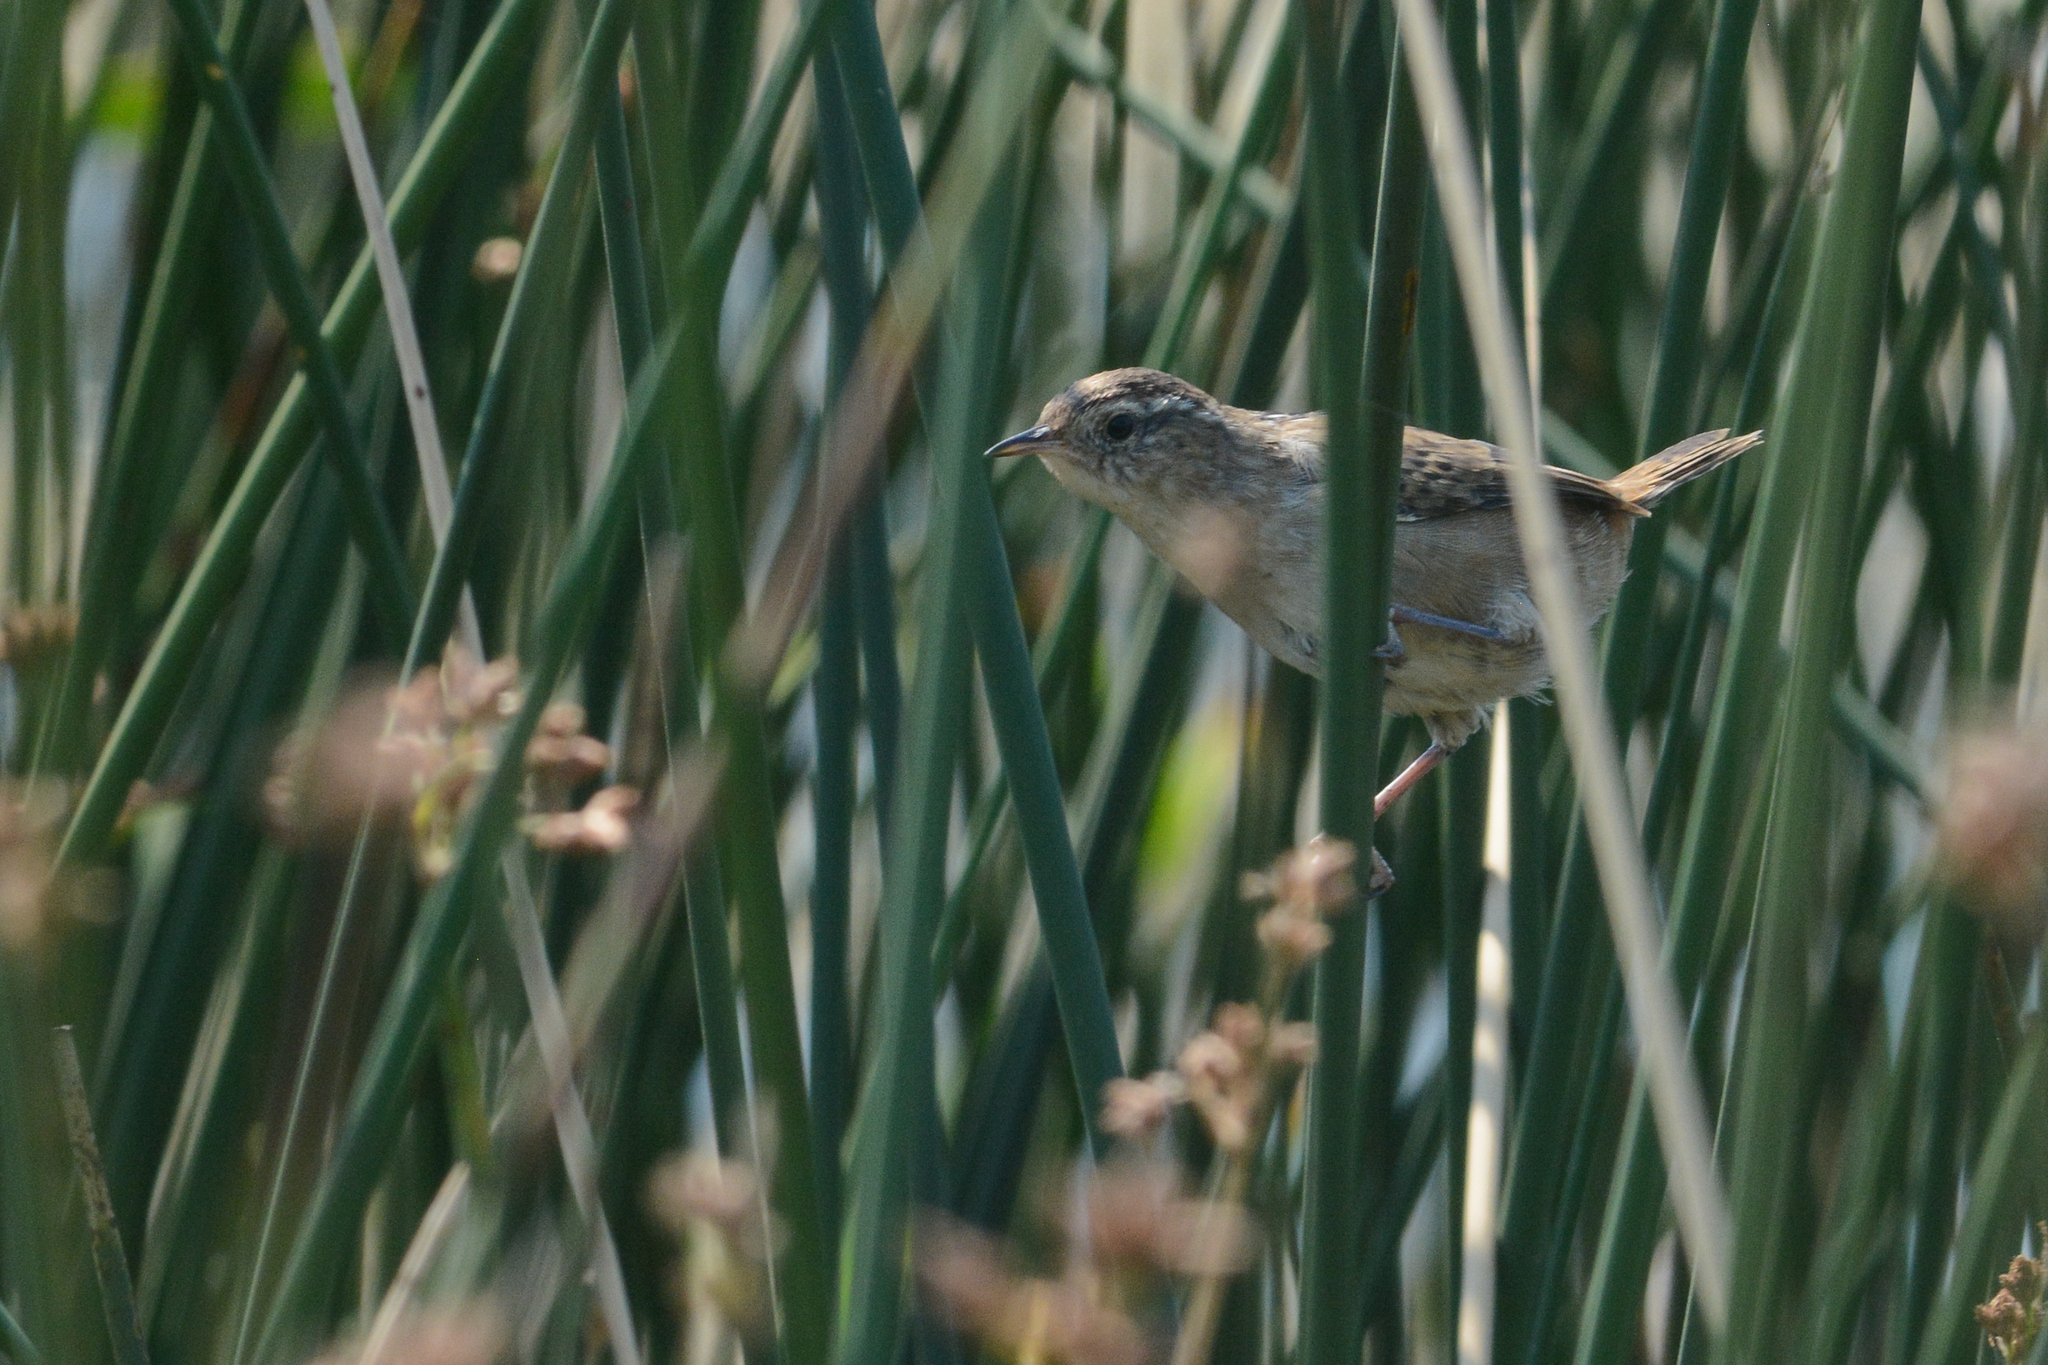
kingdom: Animalia
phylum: Chordata
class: Aves
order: Passeriformes
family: Troglodytidae
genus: Cistothorus
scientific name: Cistothorus palustris
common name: Marsh wren
